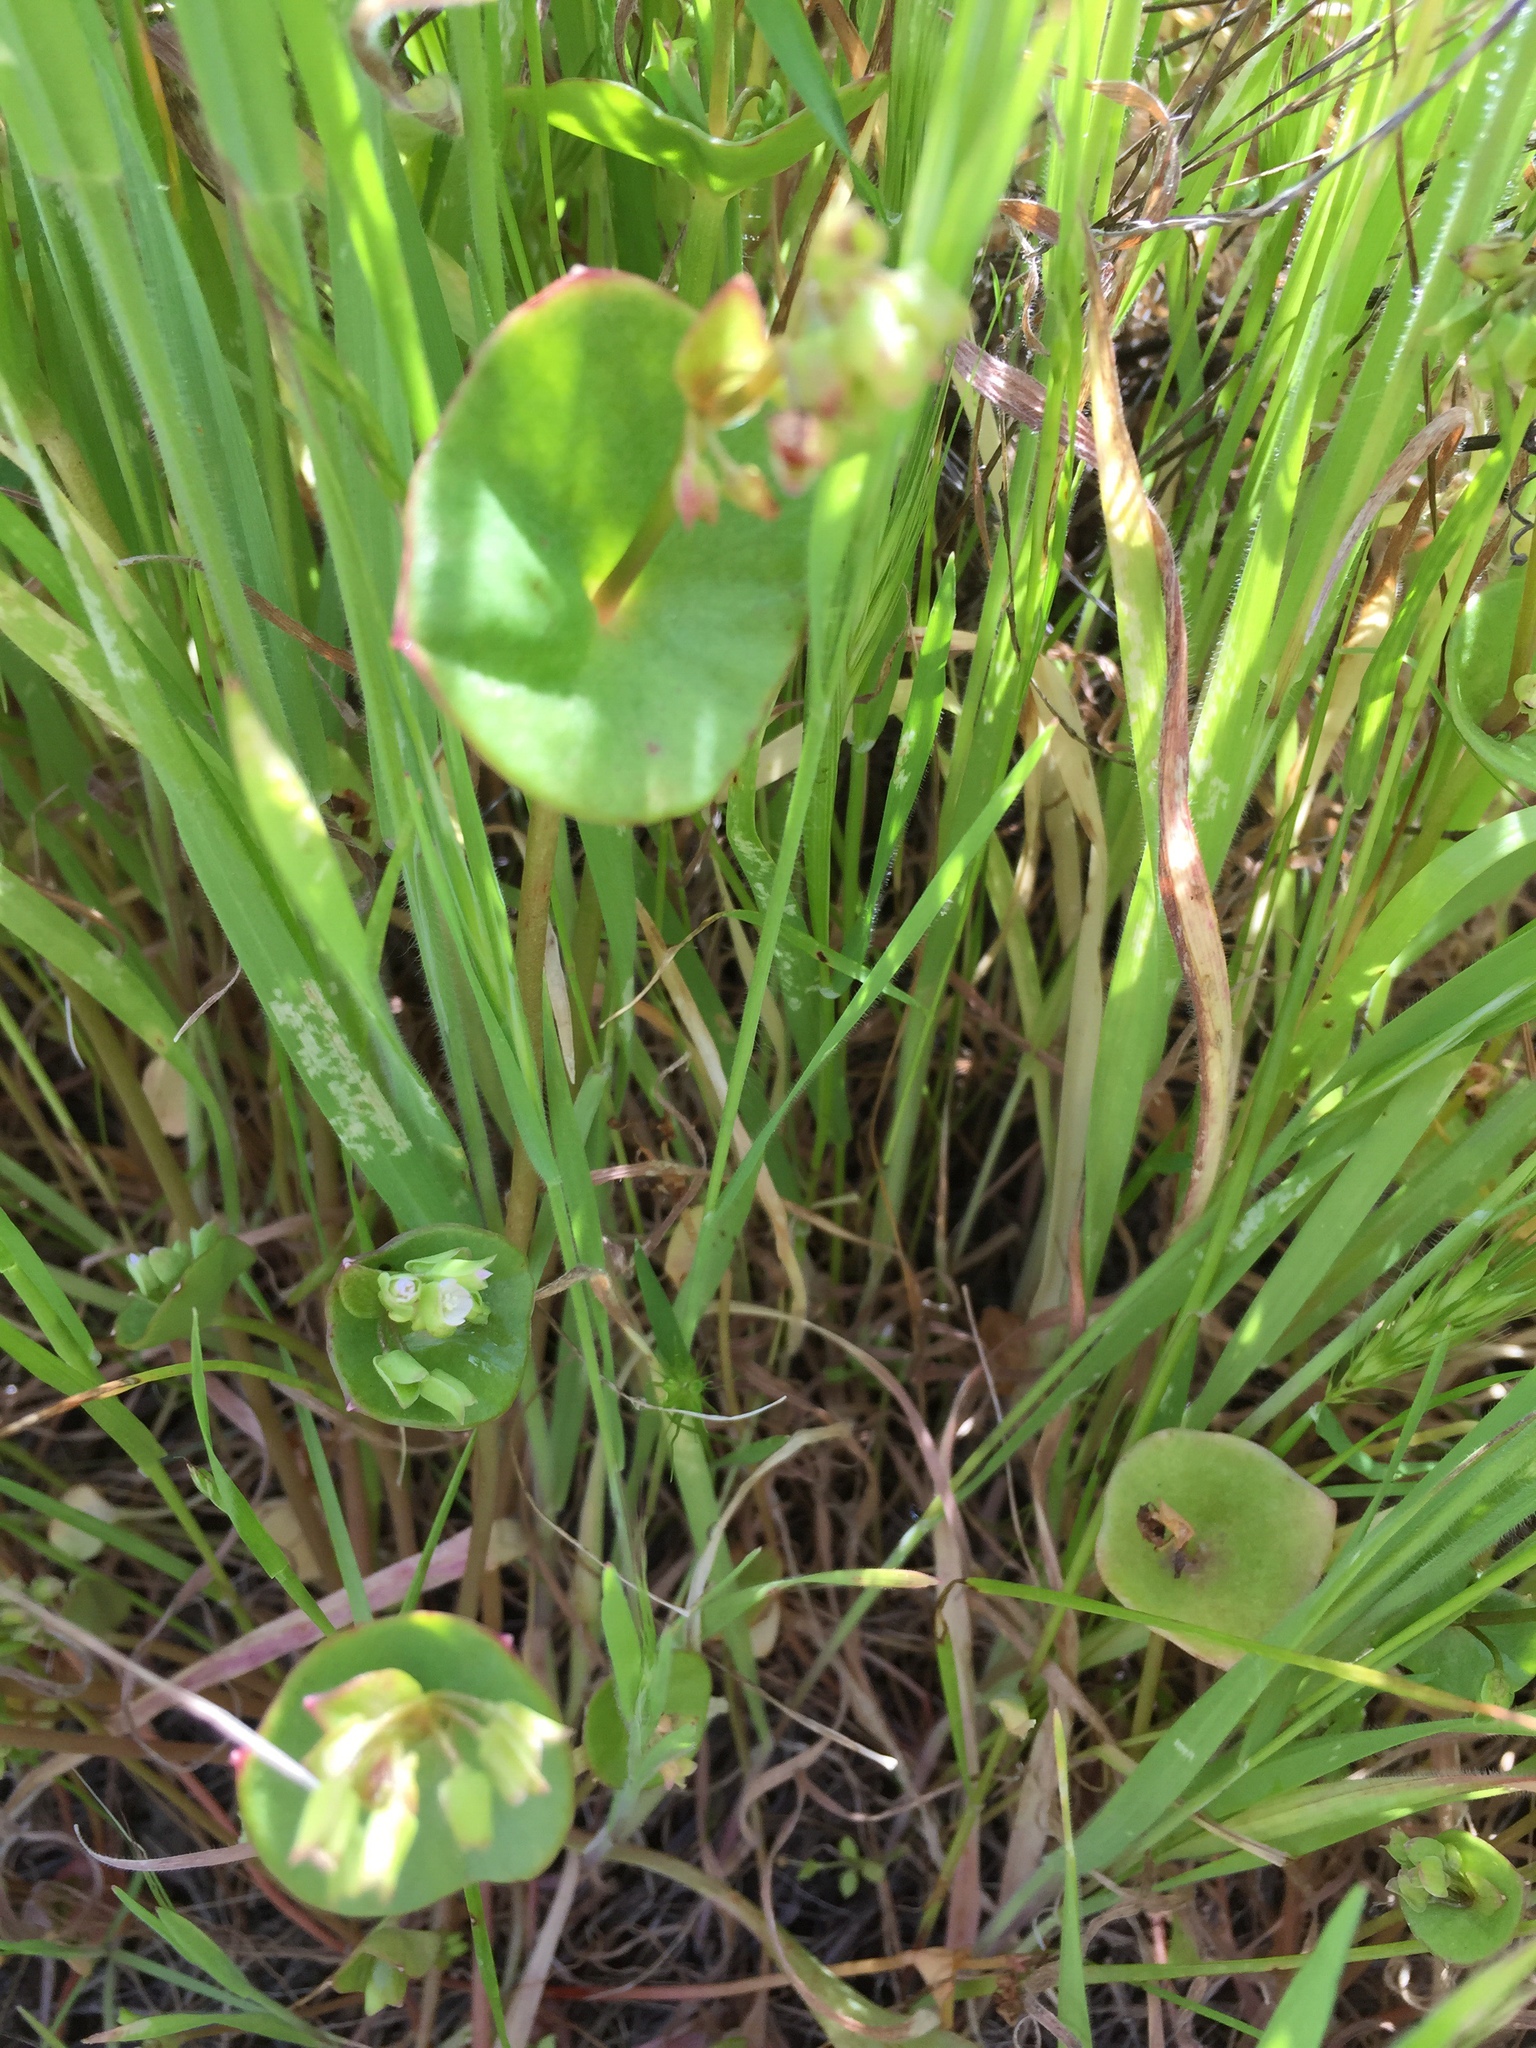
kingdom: Plantae
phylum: Tracheophyta
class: Magnoliopsida
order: Caryophyllales
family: Montiaceae
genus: Claytonia
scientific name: Claytonia perfoliata
